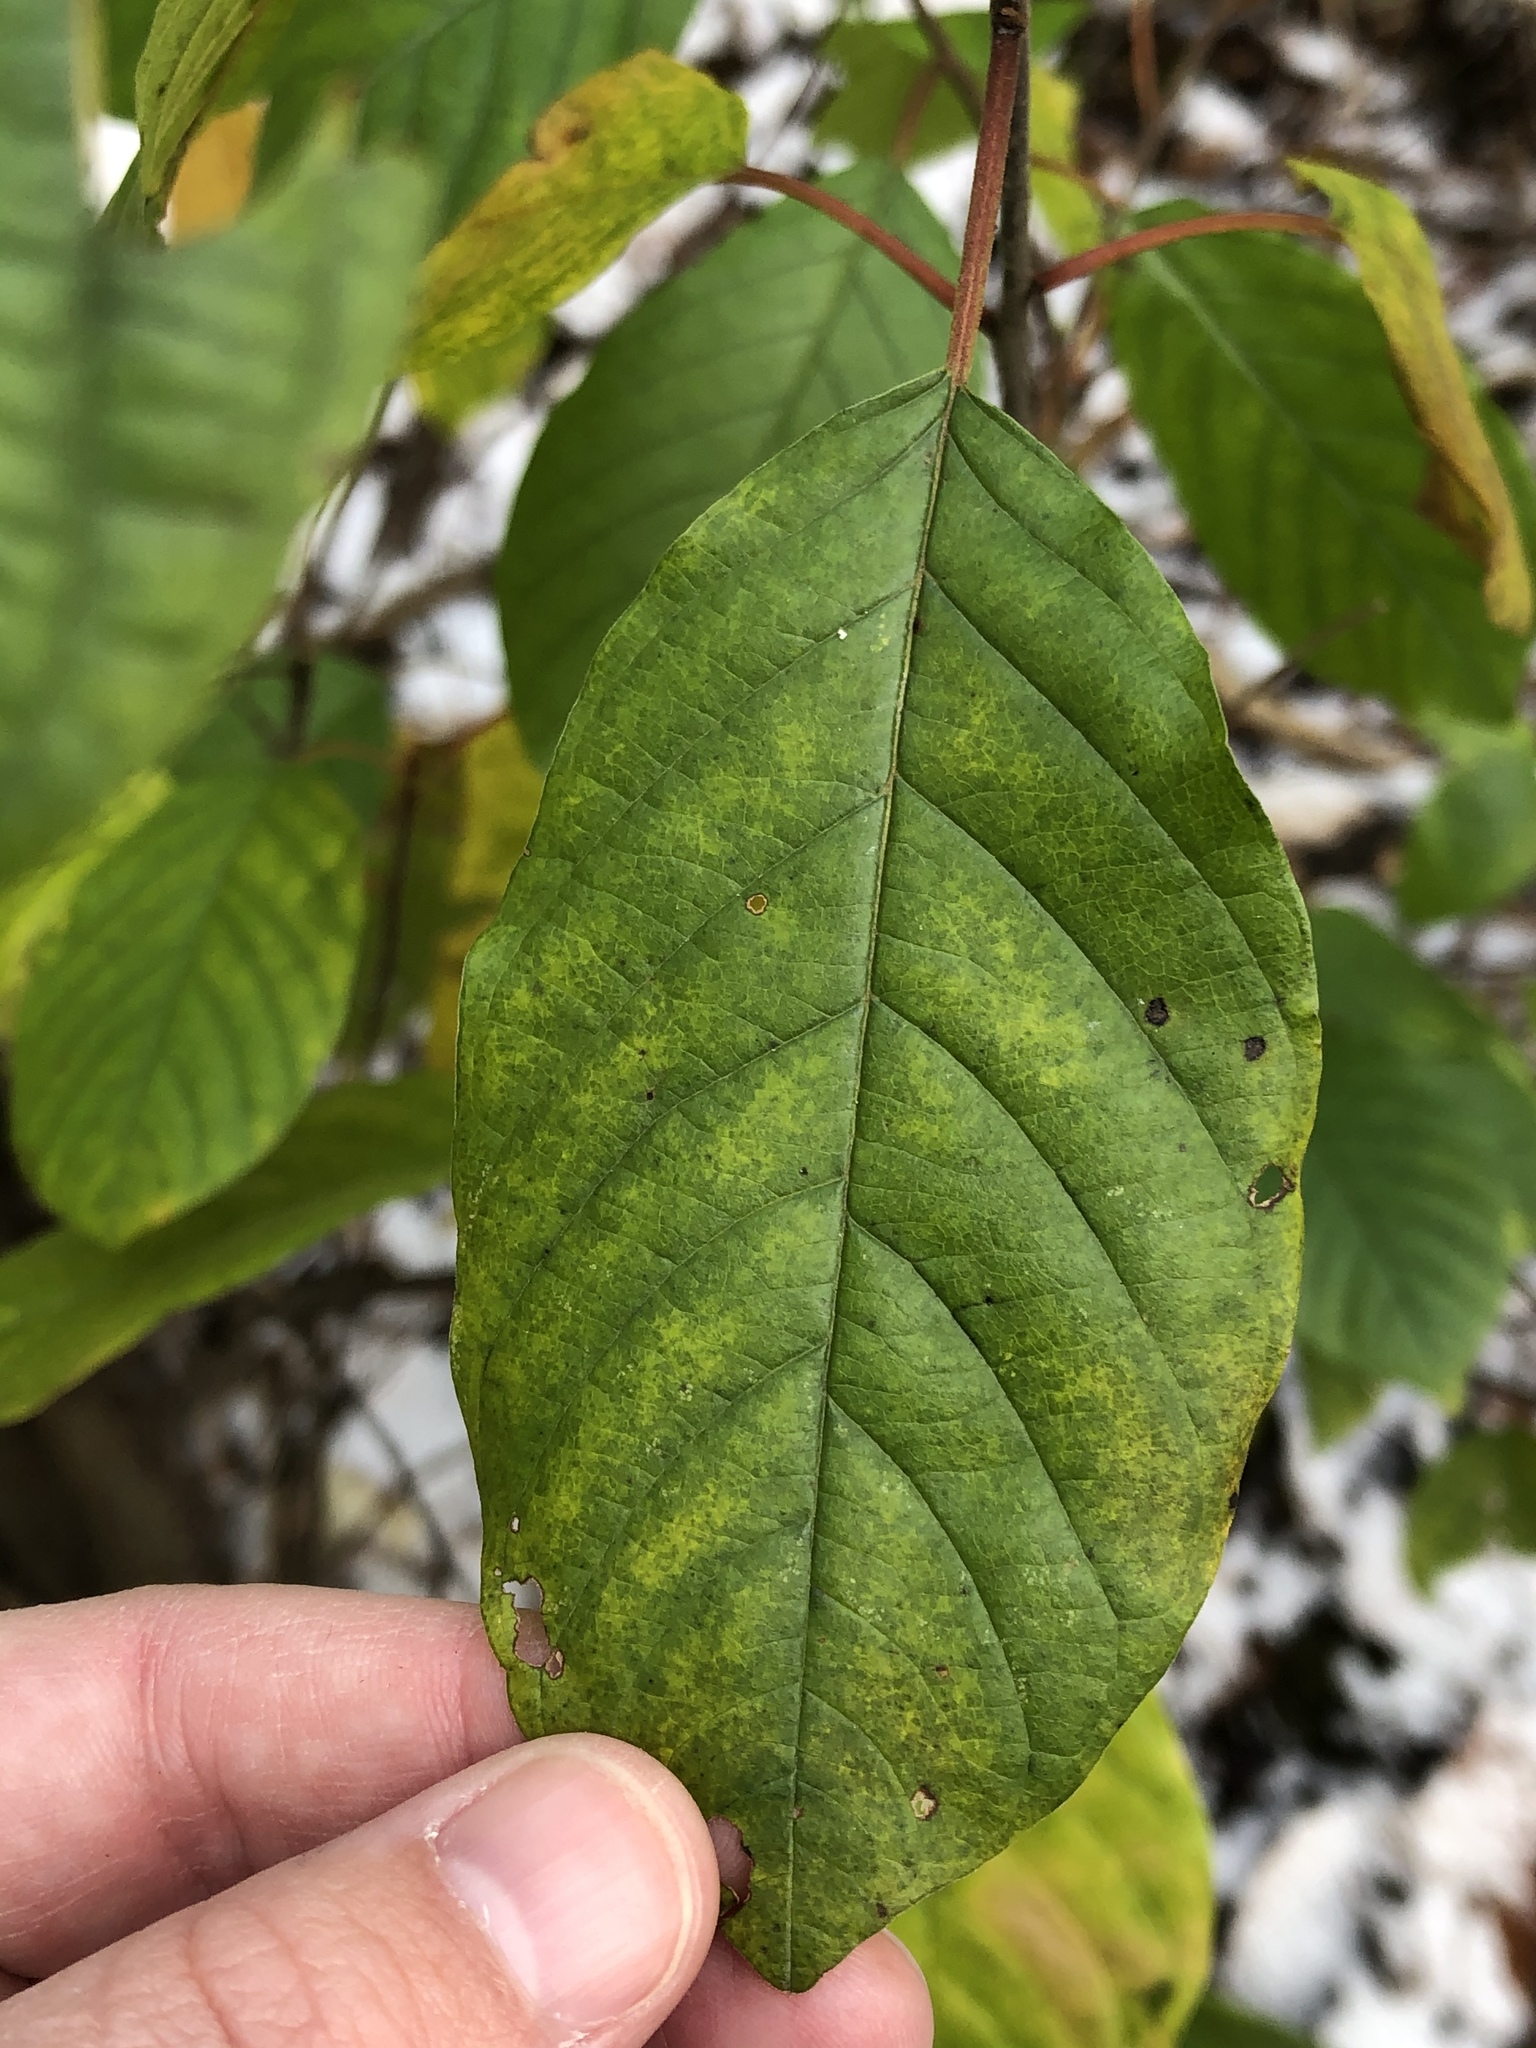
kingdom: Plantae
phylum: Tracheophyta
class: Magnoliopsida
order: Rosales
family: Rhamnaceae
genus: Frangula
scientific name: Frangula alnus
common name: Alder buckthorn
